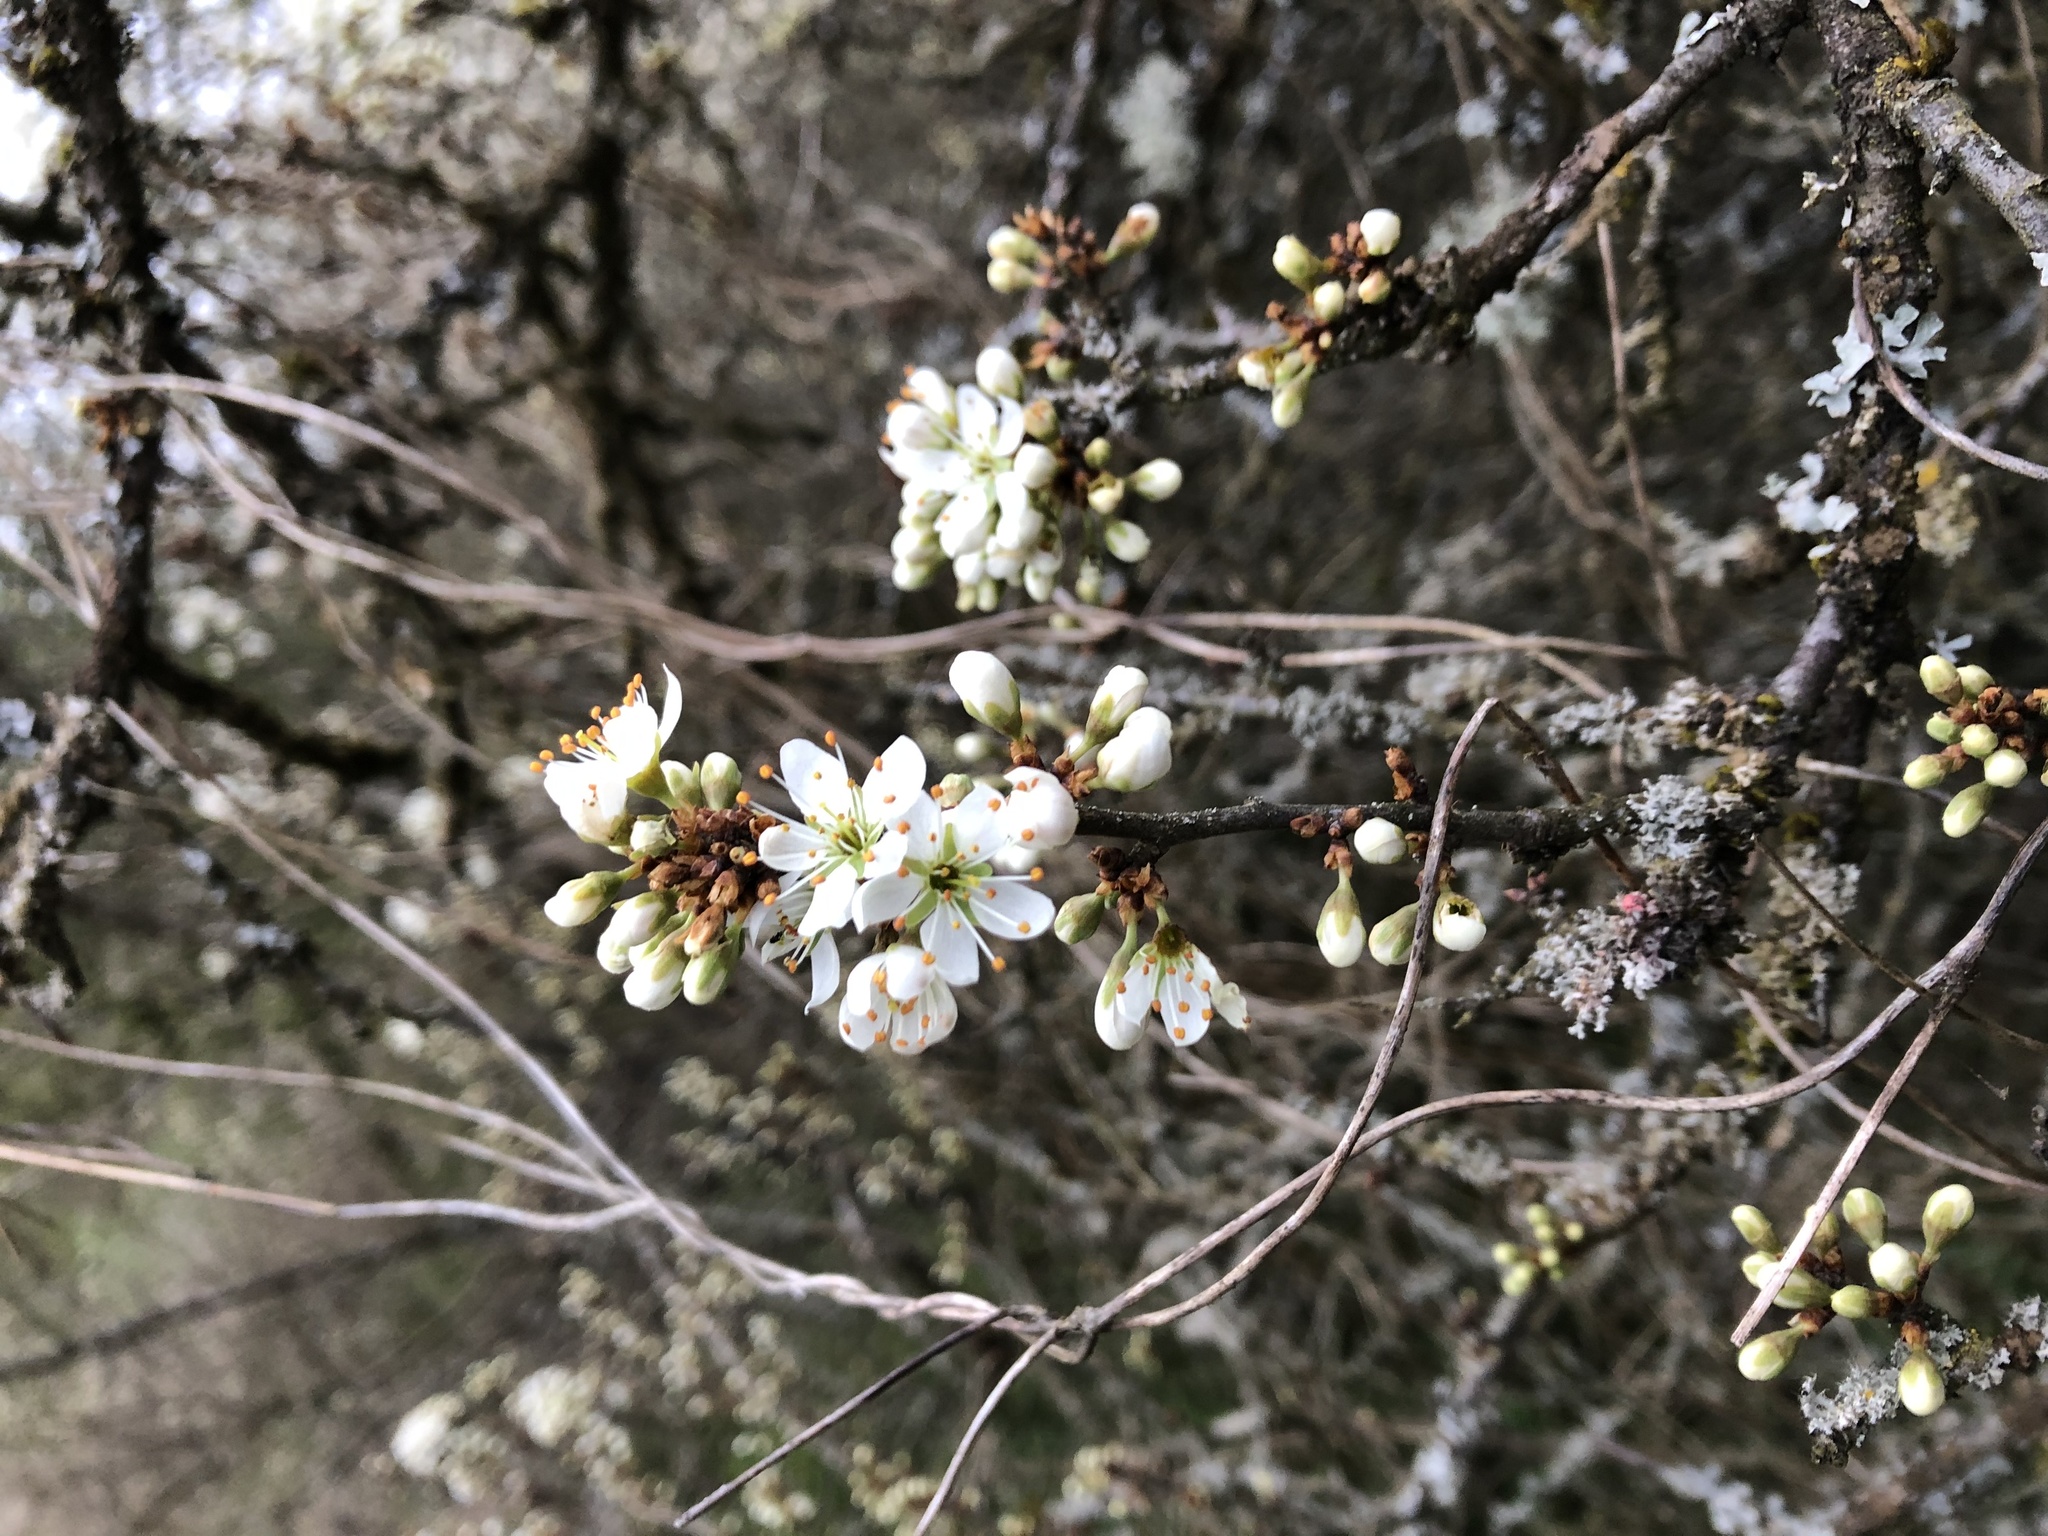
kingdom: Plantae
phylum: Tracheophyta
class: Magnoliopsida
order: Rosales
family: Rosaceae
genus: Prunus
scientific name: Prunus spinosa
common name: Blackthorn
